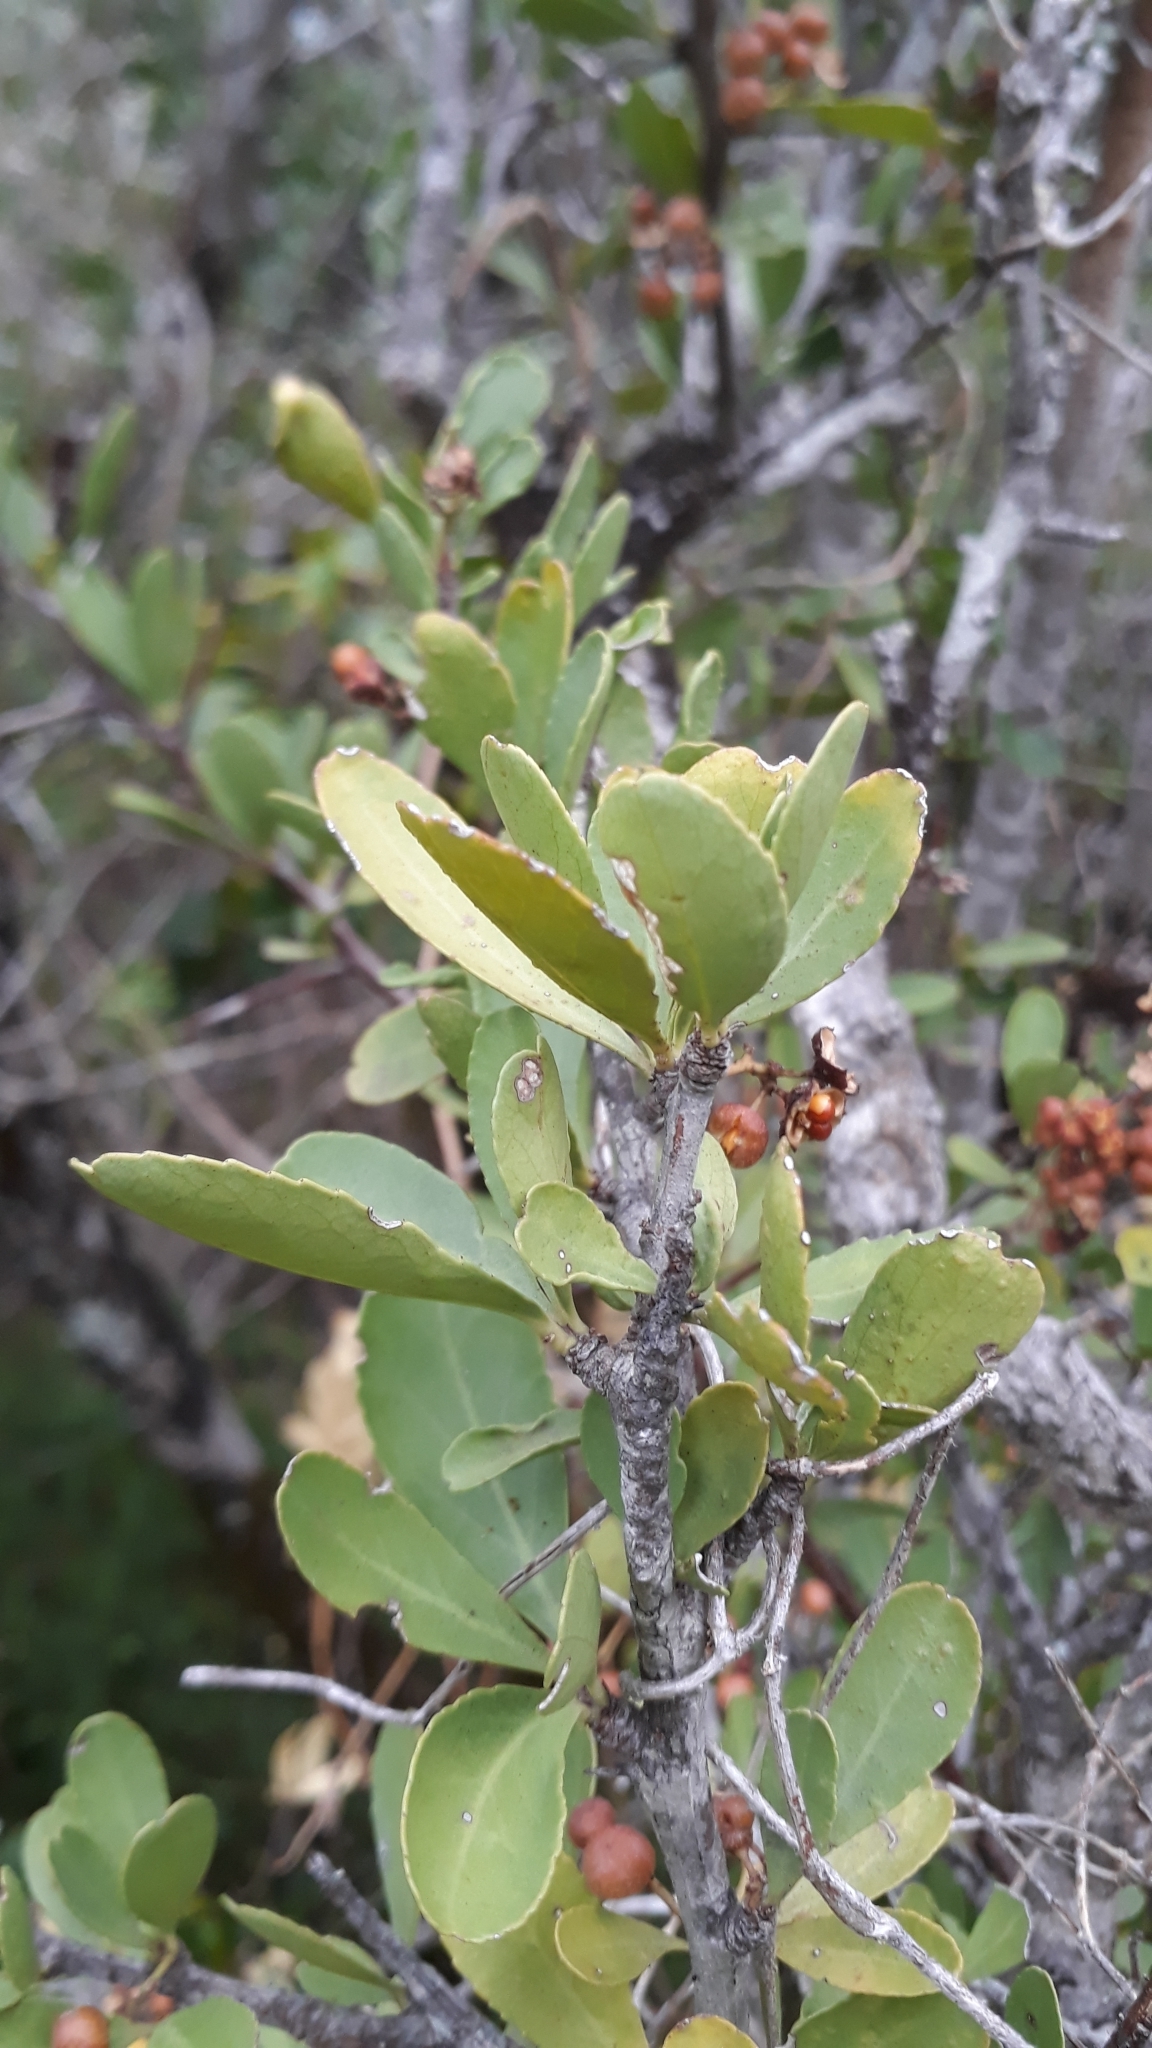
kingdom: Plantae
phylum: Tracheophyta
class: Magnoliopsida
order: Celastrales
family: Celastraceae
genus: Gymnosporia
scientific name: Gymnosporia buxifolia
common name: Common spike-thorn
